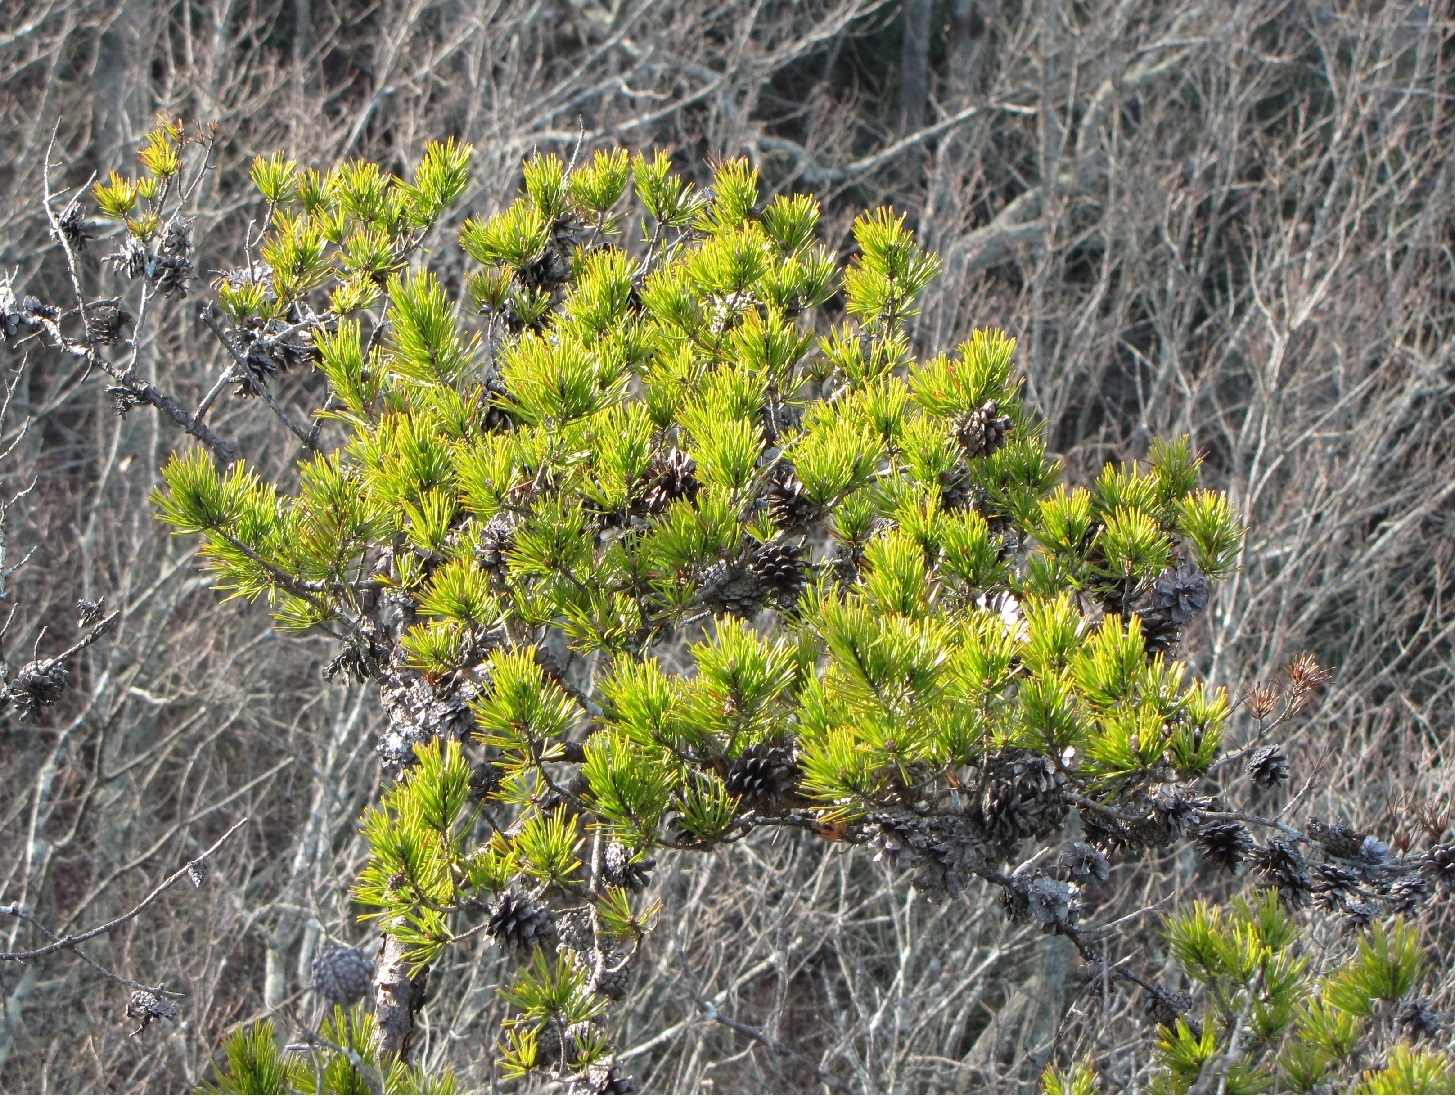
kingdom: Plantae
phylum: Tracheophyta
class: Pinopsida
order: Pinales
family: Pinaceae
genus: Pinus
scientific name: Pinus virginiana
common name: Scrub pine
